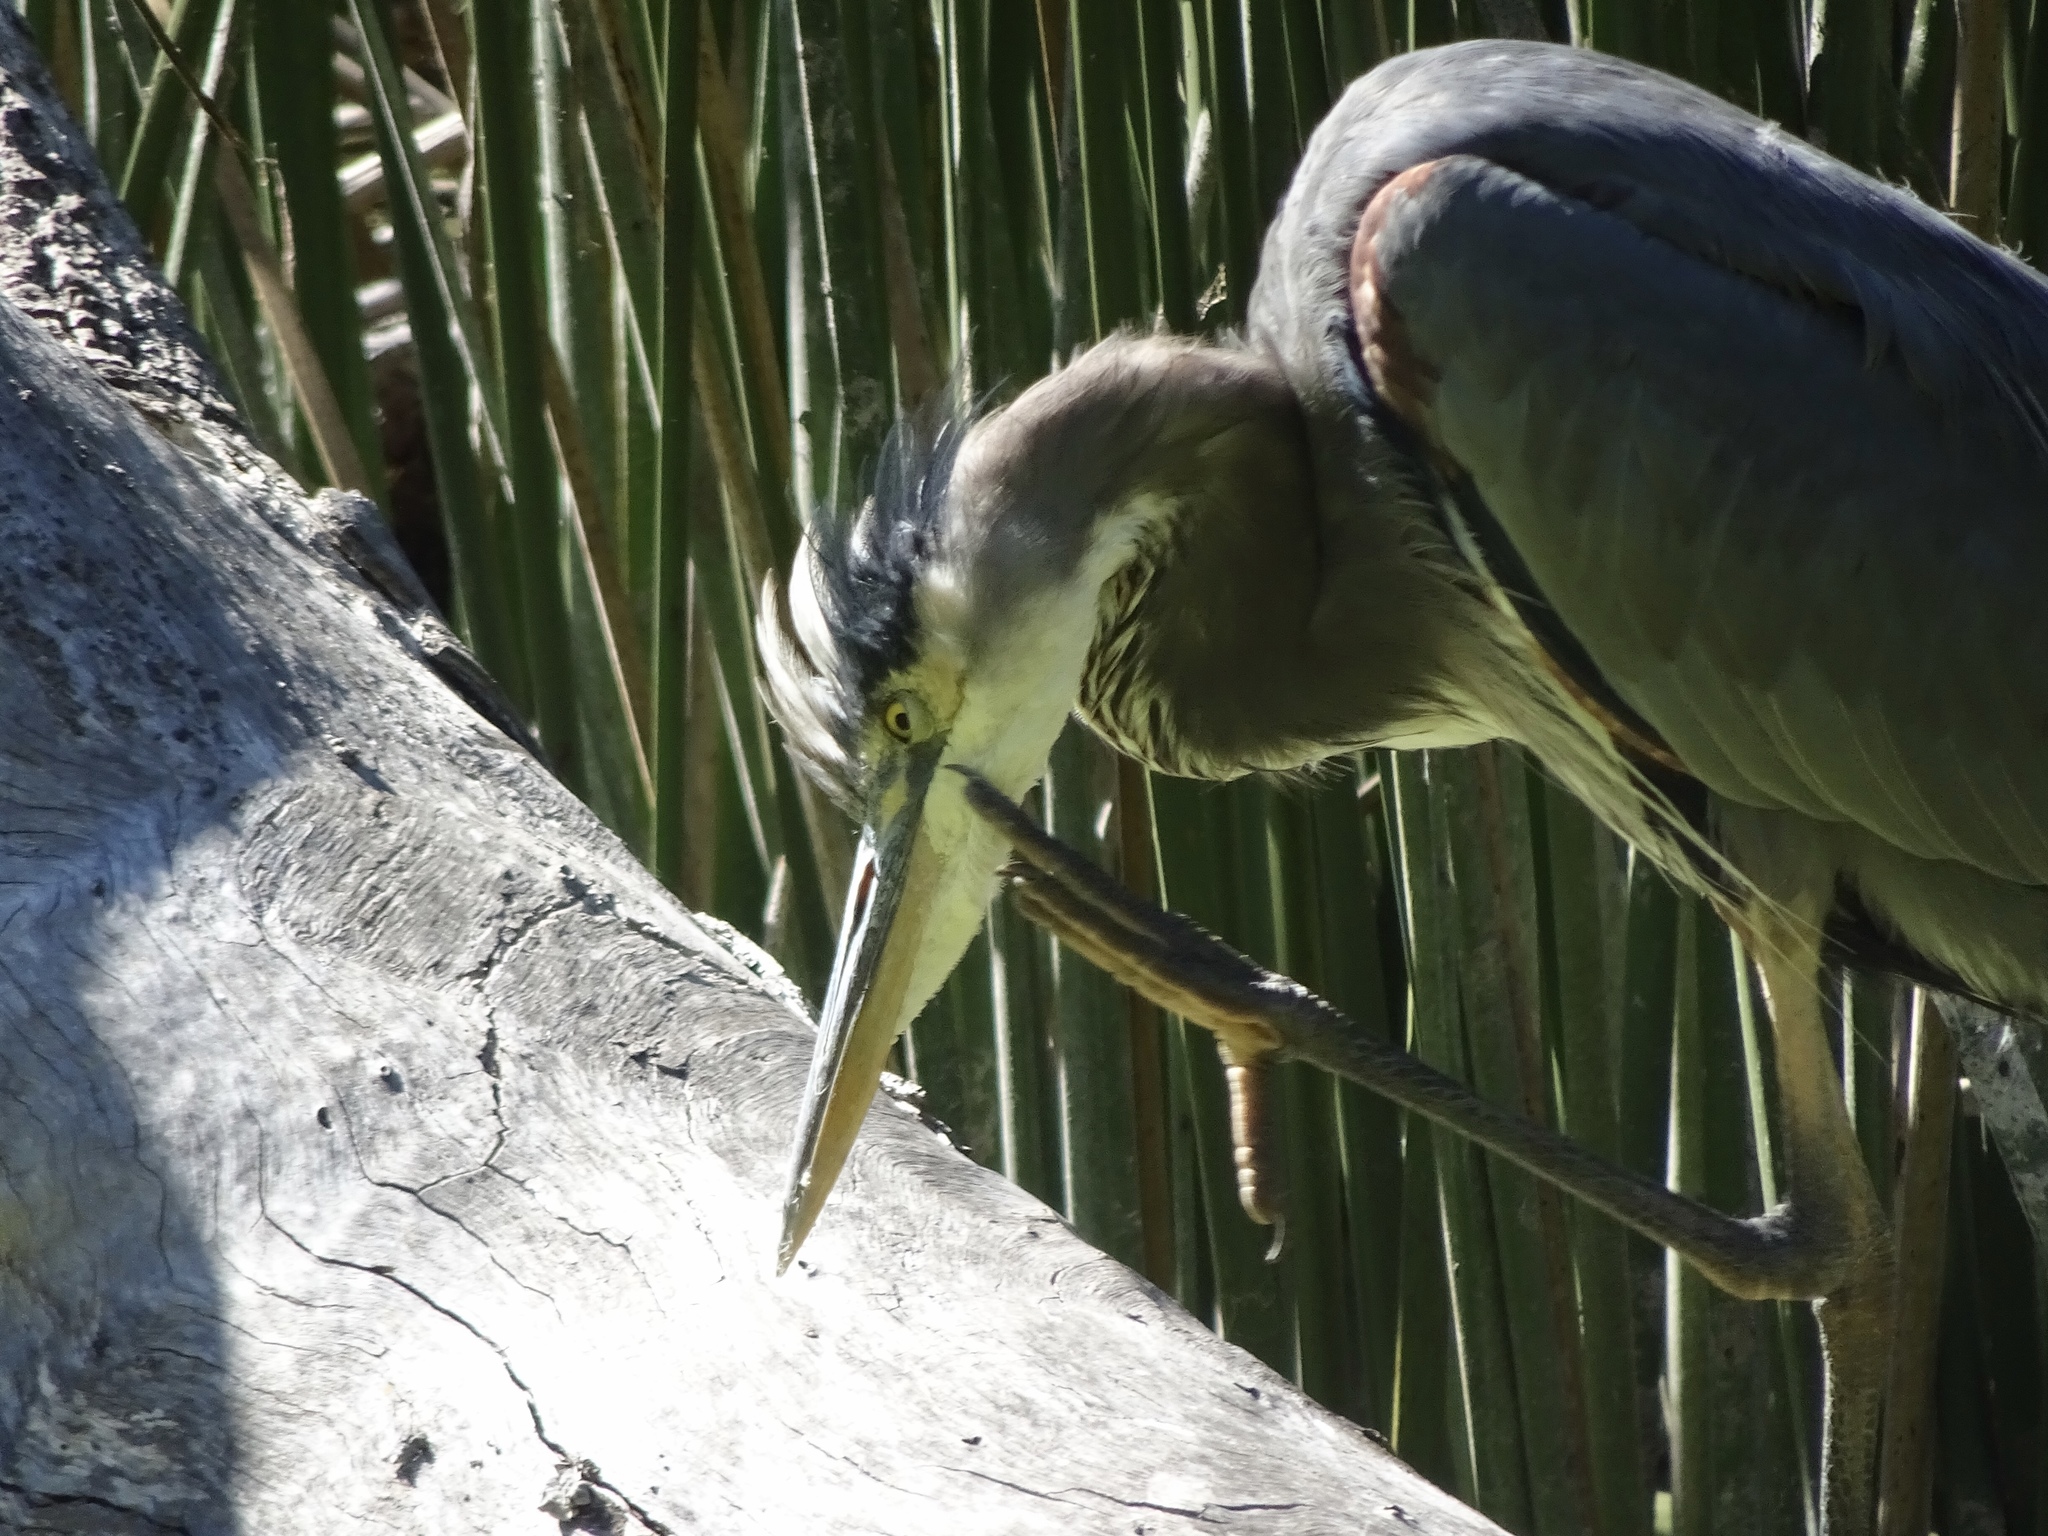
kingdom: Animalia
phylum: Chordata
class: Aves
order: Pelecaniformes
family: Ardeidae
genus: Ardea
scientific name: Ardea herodias
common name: Great blue heron
